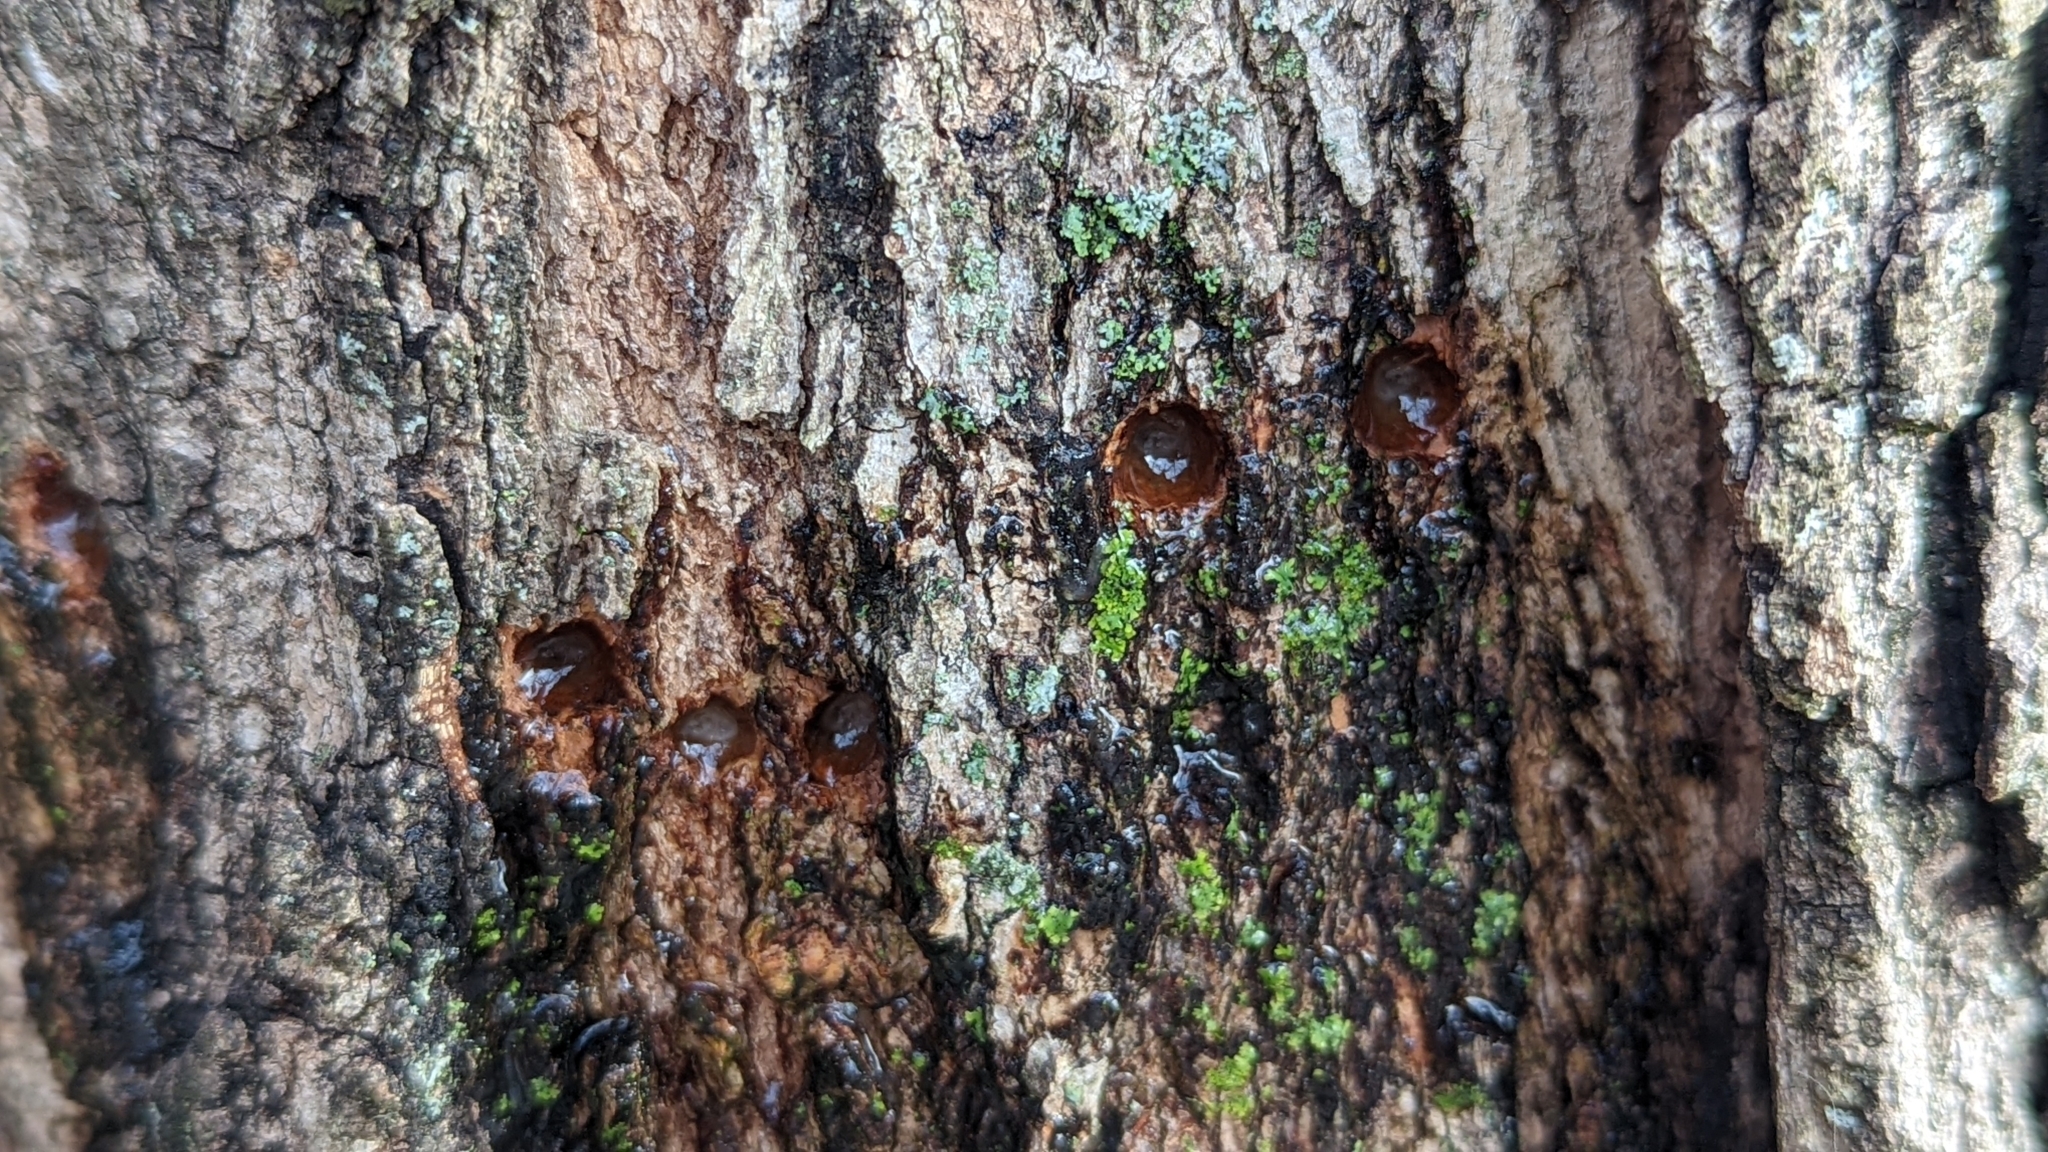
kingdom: Animalia
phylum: Chordata
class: Aves
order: Piciformes
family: Picidae
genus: Sphyrapicus
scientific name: Sphyrapicus varius
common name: Yellow-bellied sapsucker
